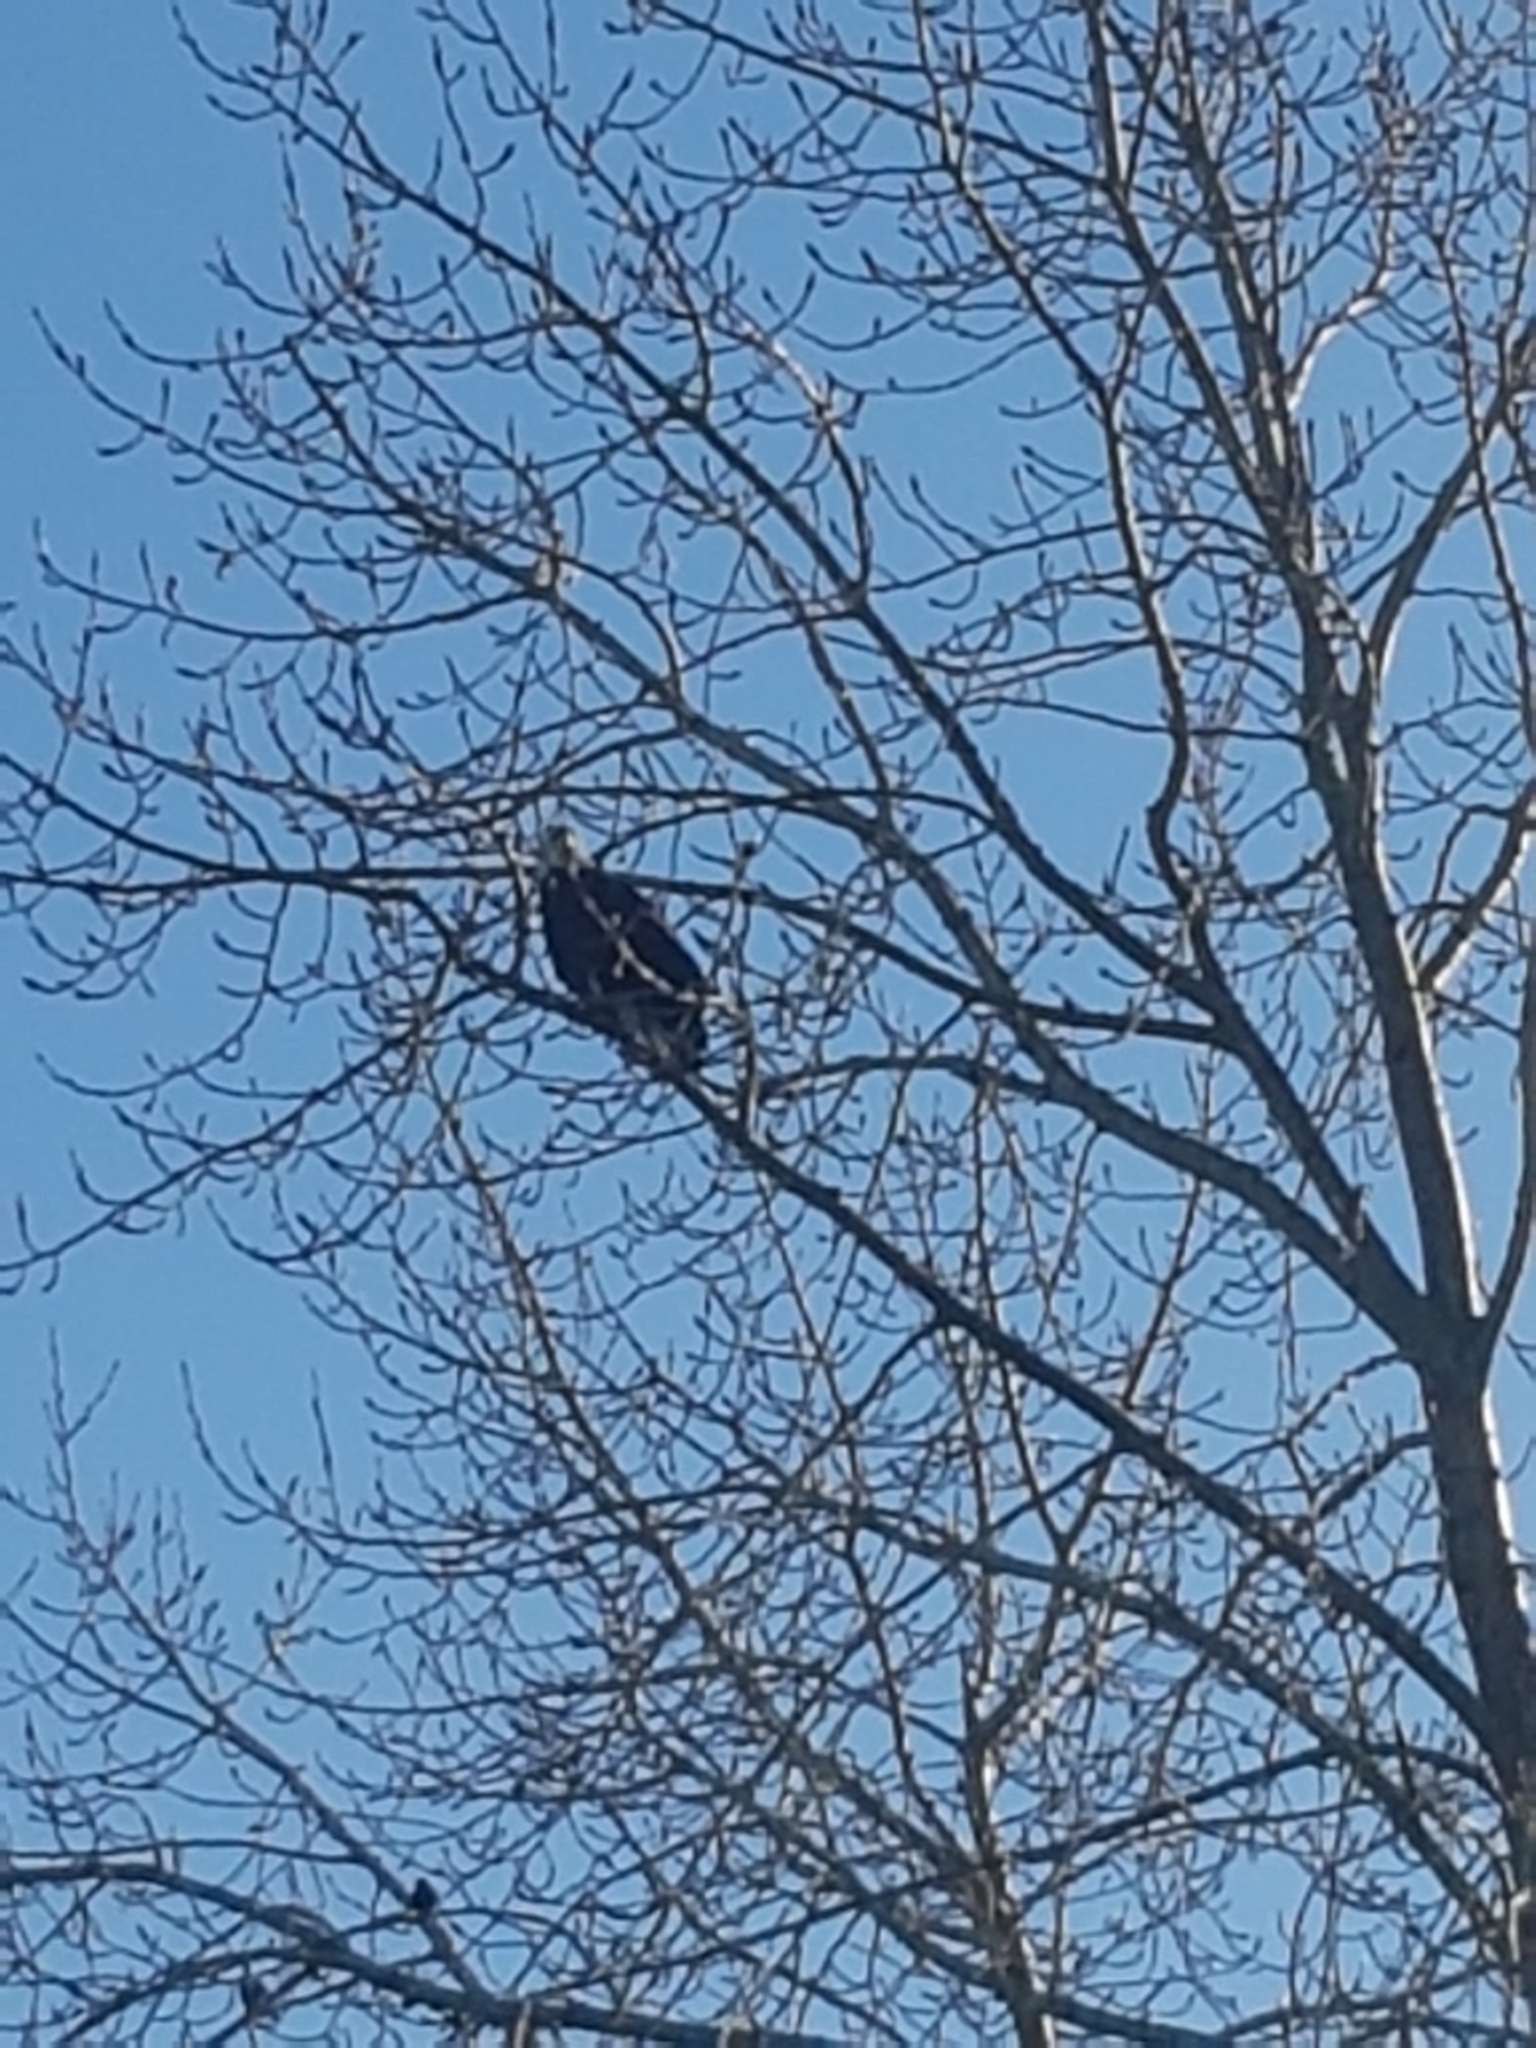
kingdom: Animalia
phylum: Chordata
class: Aves
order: Accipitriformes
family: Accipitridae
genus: Haliaeetus
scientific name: Haliaeetus leucocephalus
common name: Bald eagle
